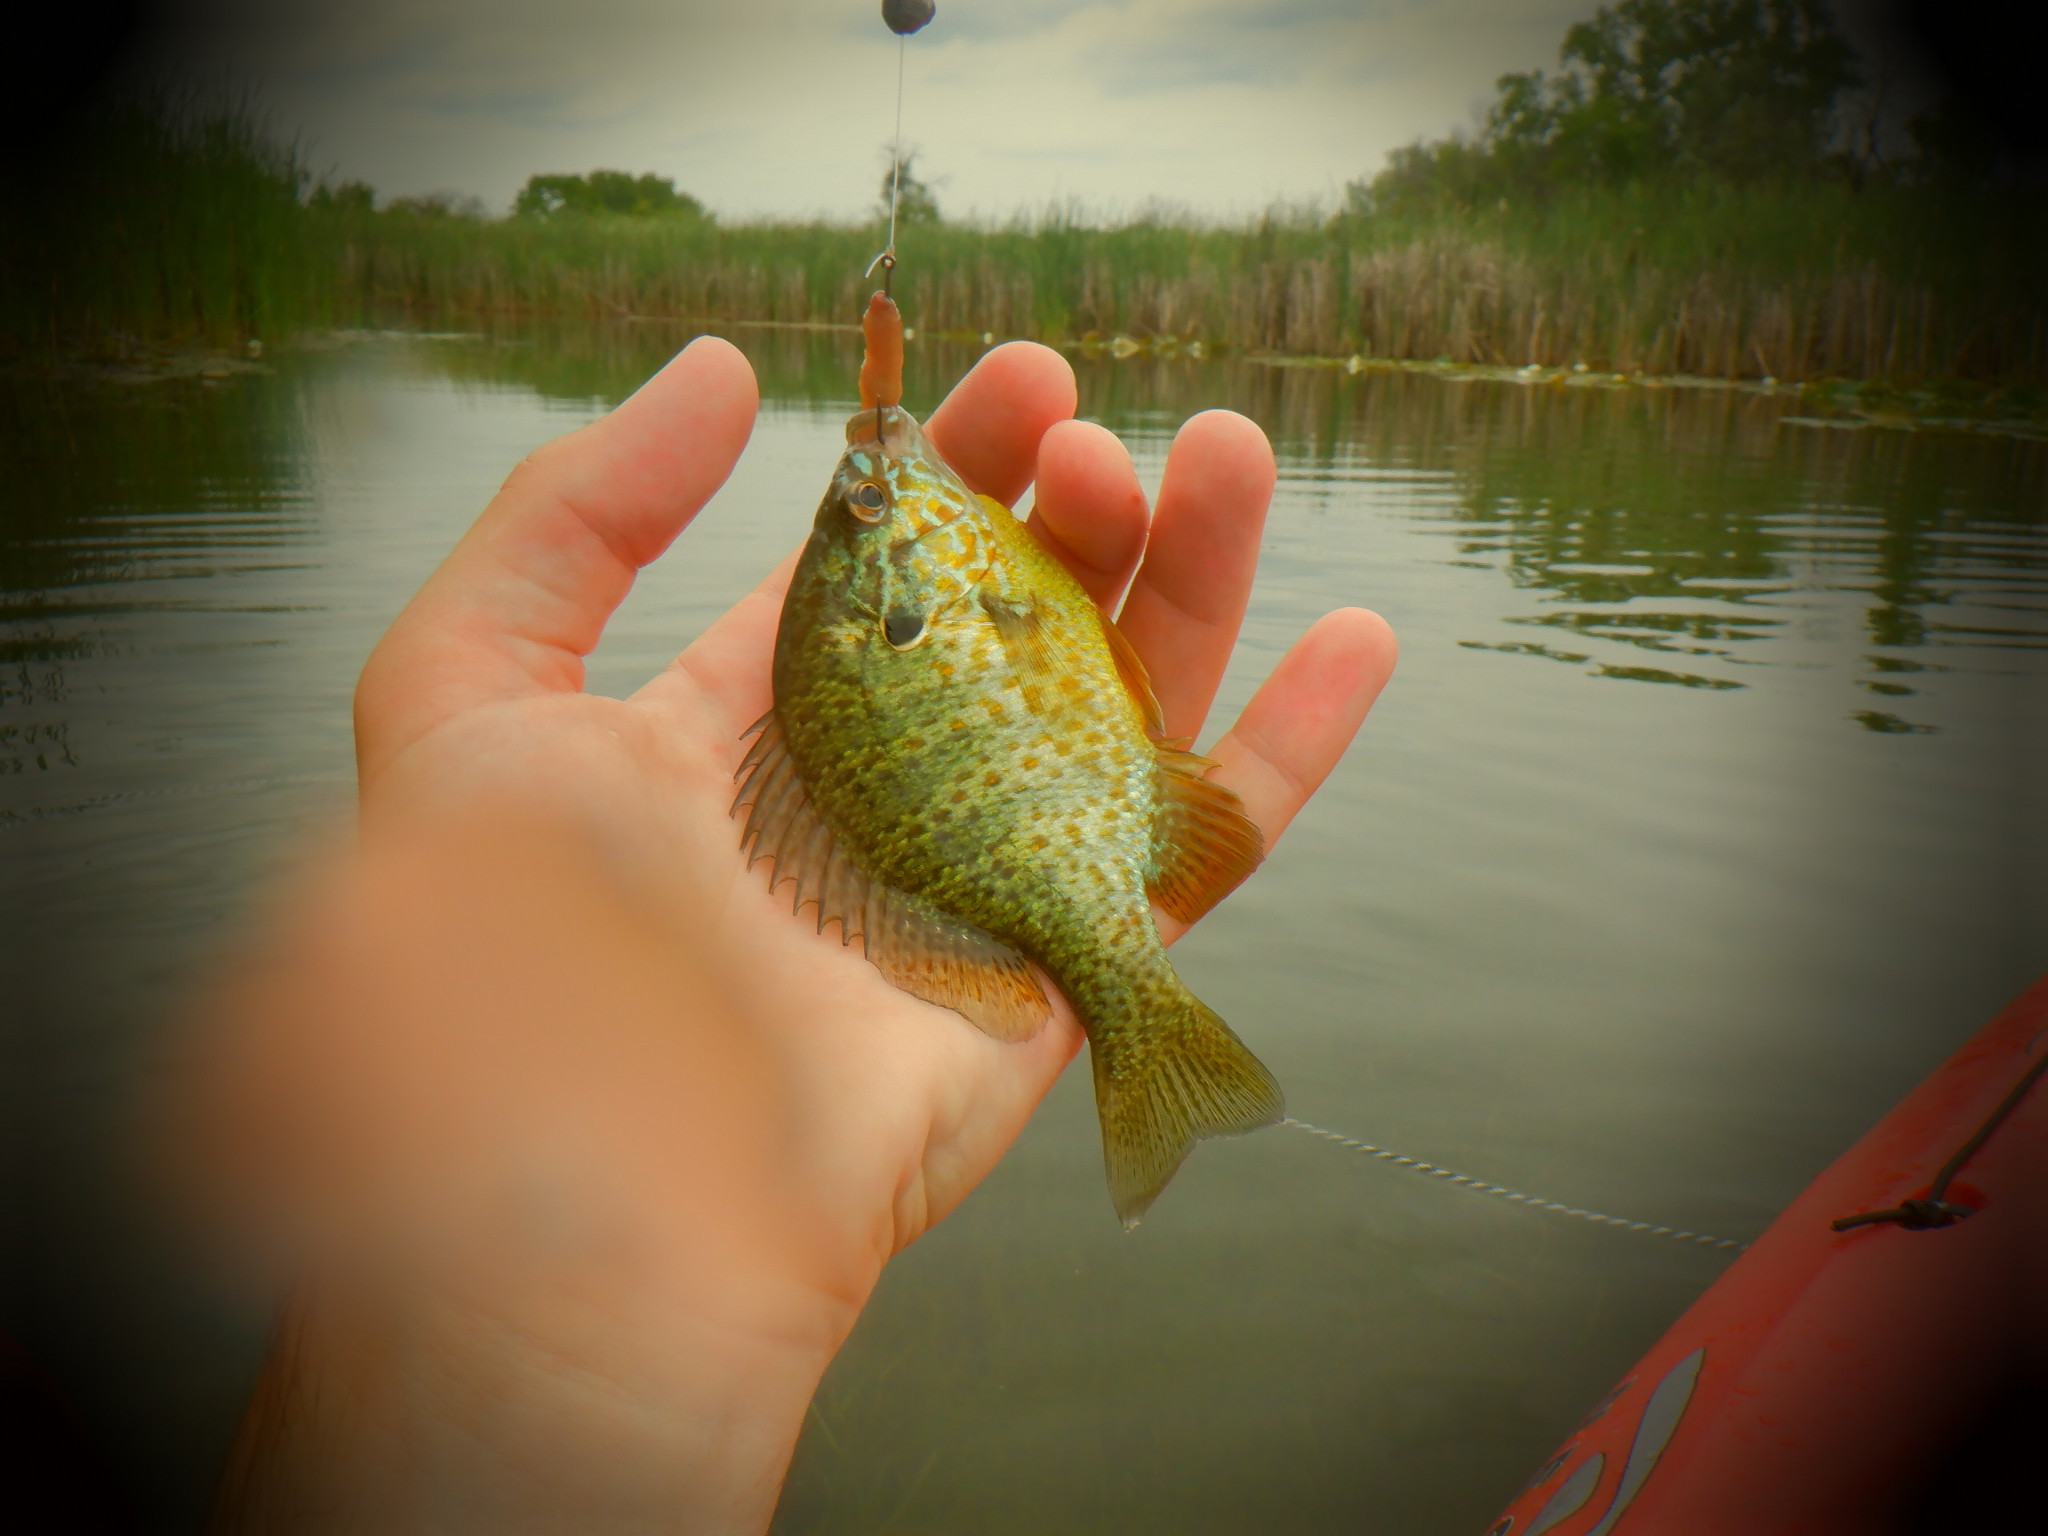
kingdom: Animalia
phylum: Chordata
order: Perciformes
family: Centrarchidae
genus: Lepomis
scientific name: Lepomis gibbosus
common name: Pumpkinseed
